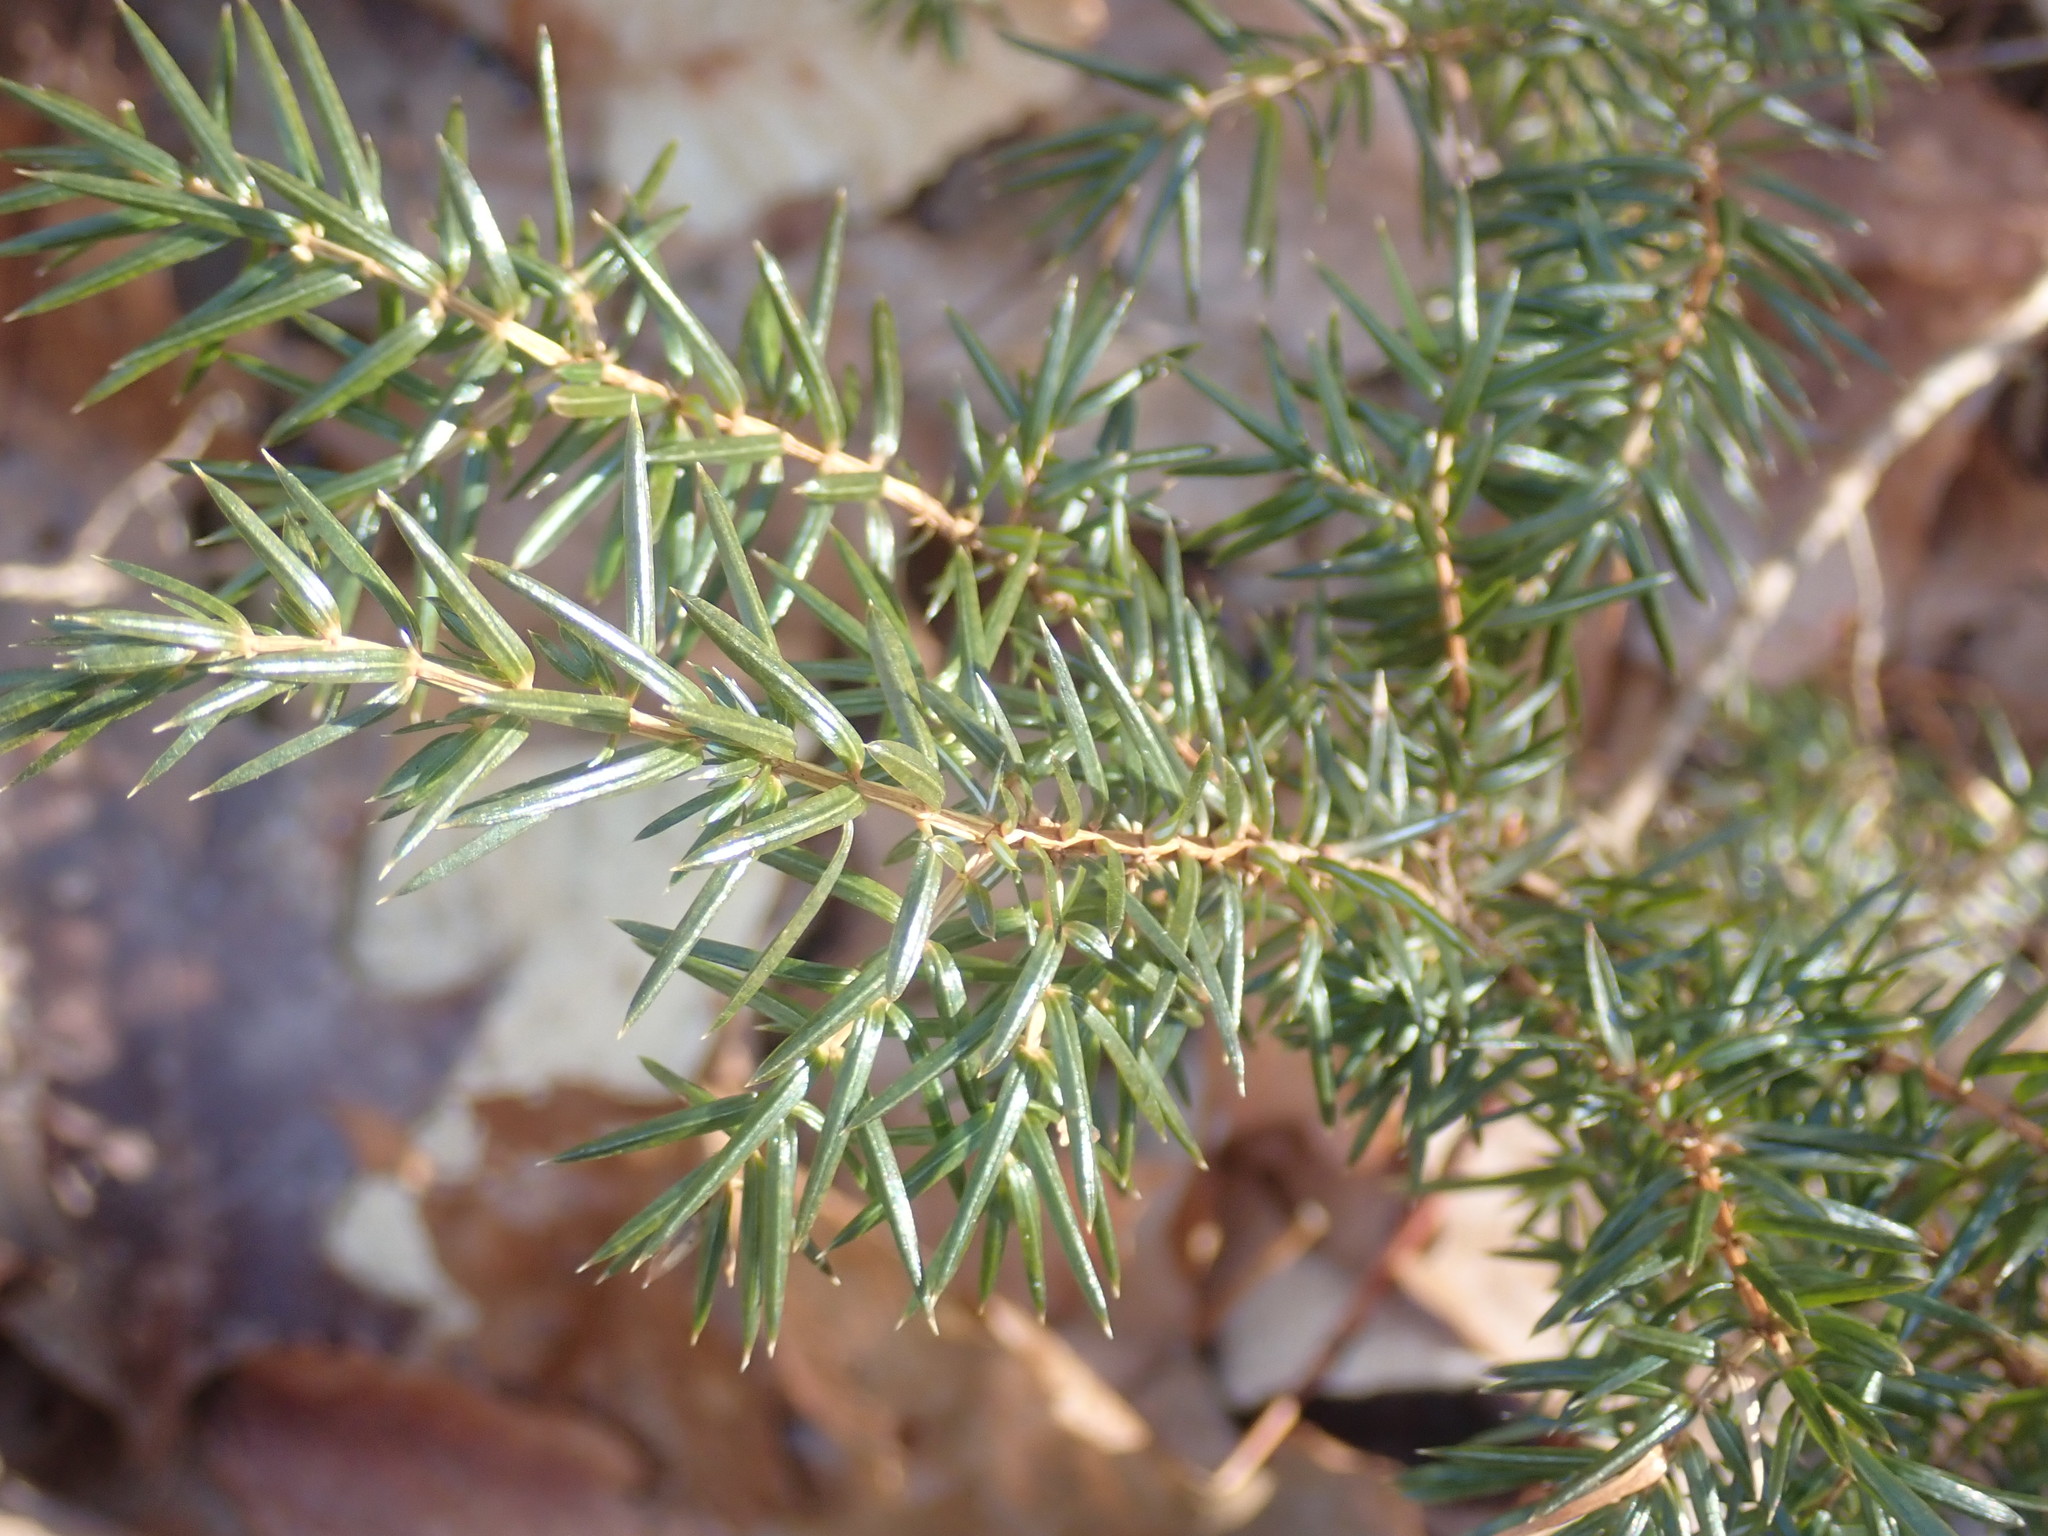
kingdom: Plantae
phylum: Tracheophyta
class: Pinopsida
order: Pinales
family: Cupressaceae
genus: Juniperus
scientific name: Juniperus communis
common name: Common juniper
